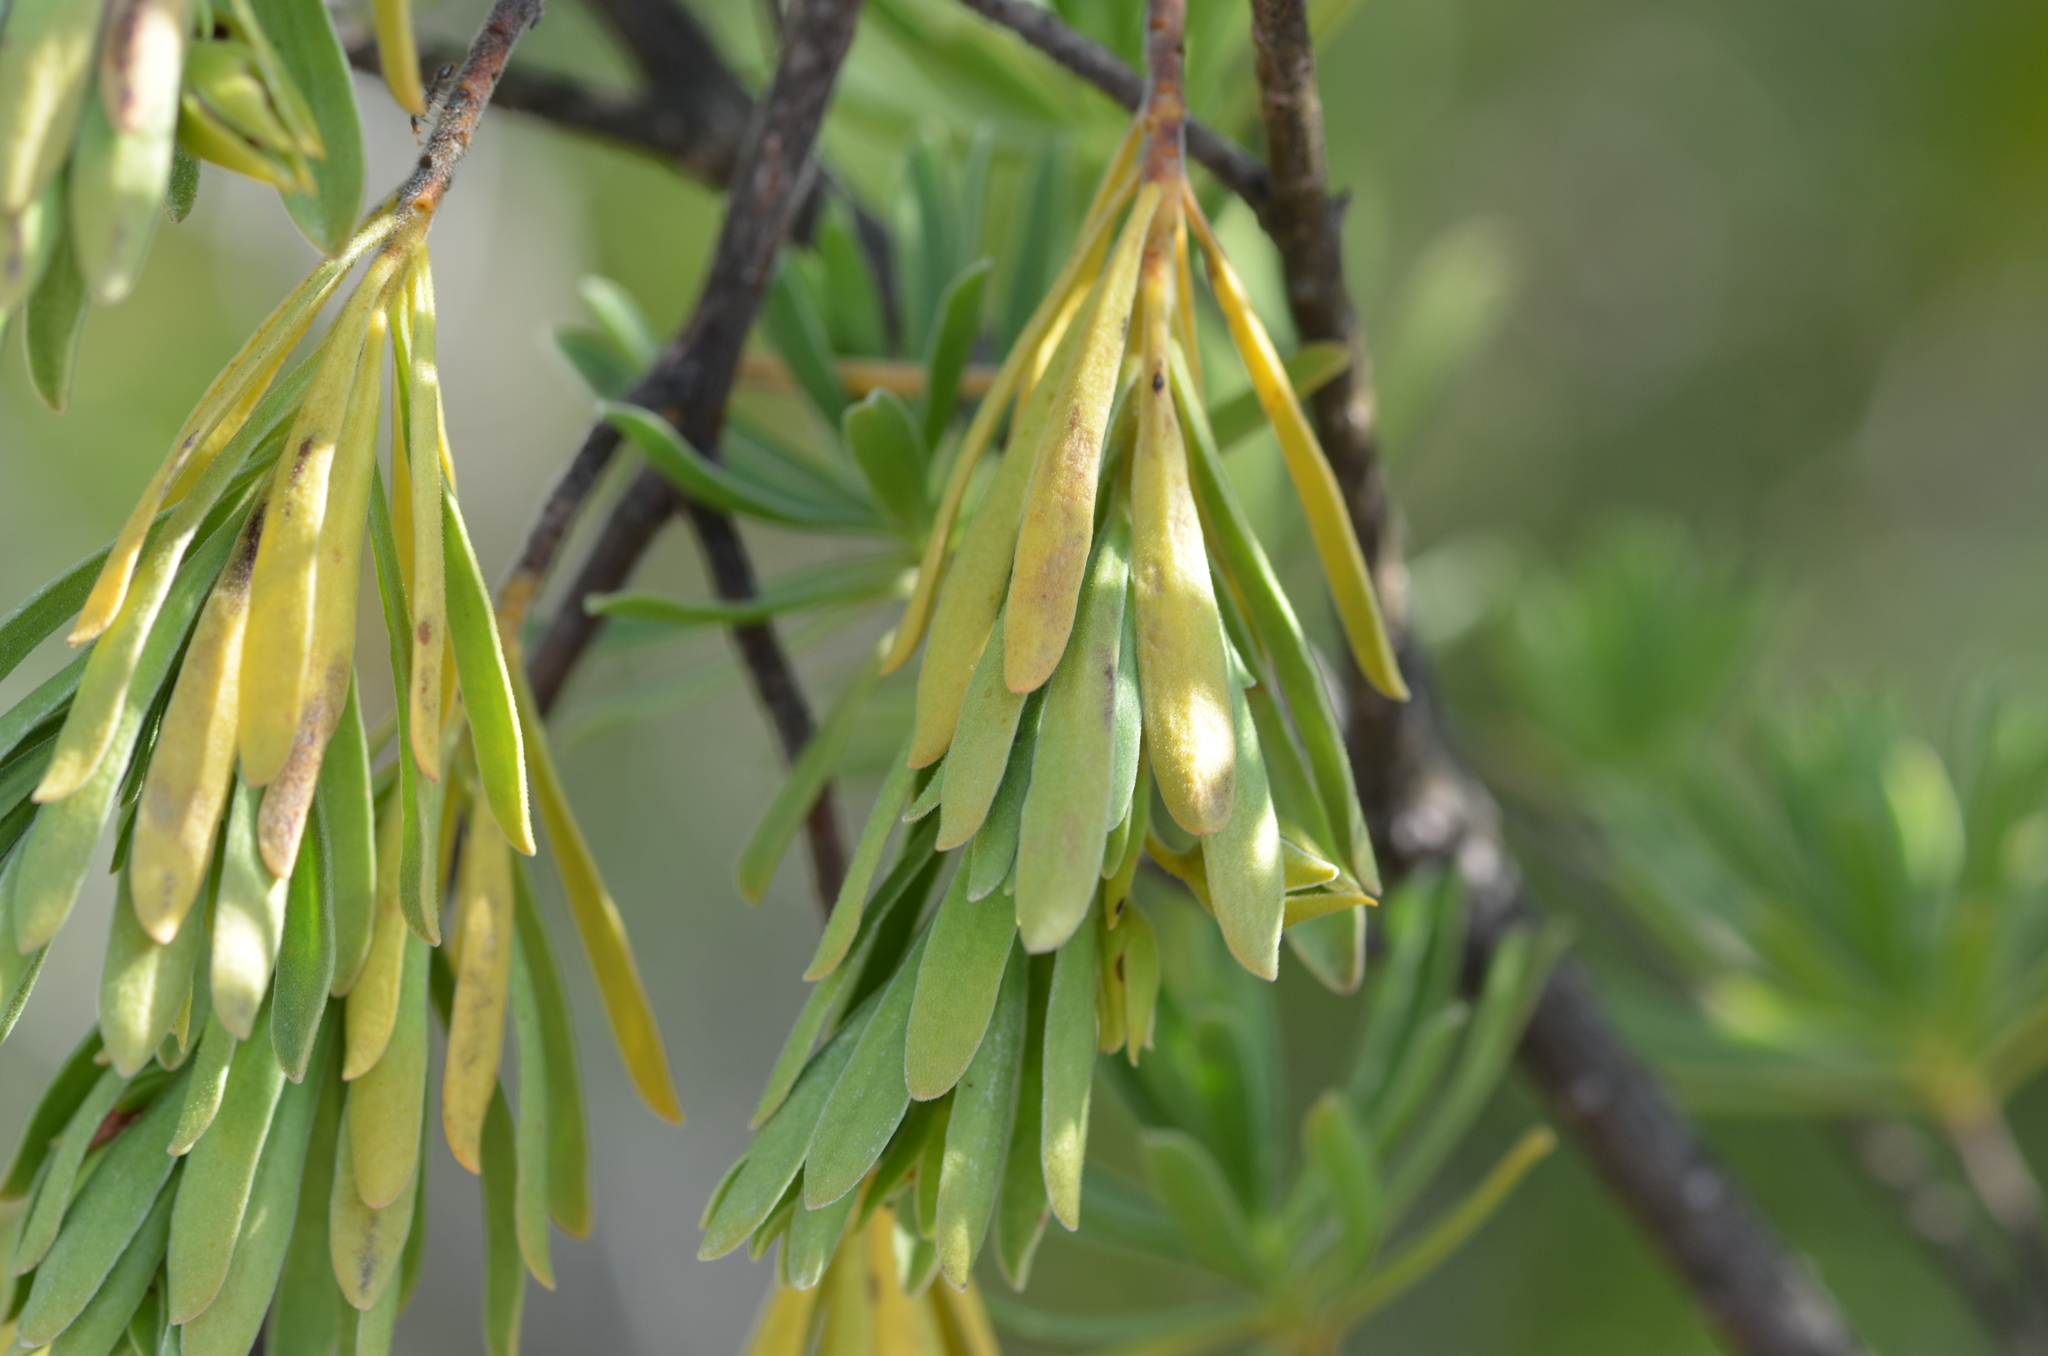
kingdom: Plantae
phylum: Tracheophyta
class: Magnoliopsida
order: Fabales
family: Surianaceae
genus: Suriana
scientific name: Suriana maritima
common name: Bay-cedar
